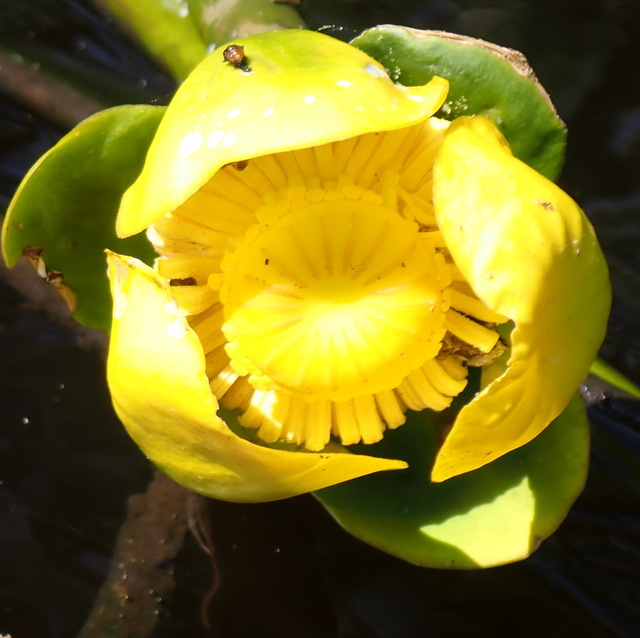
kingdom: Plantae
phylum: Tracheophyta
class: Magnoliopsida
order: Nymphaeales
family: Nymphaeaceae
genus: Nuphar
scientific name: Nuphar advena
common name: Spatter-dock
